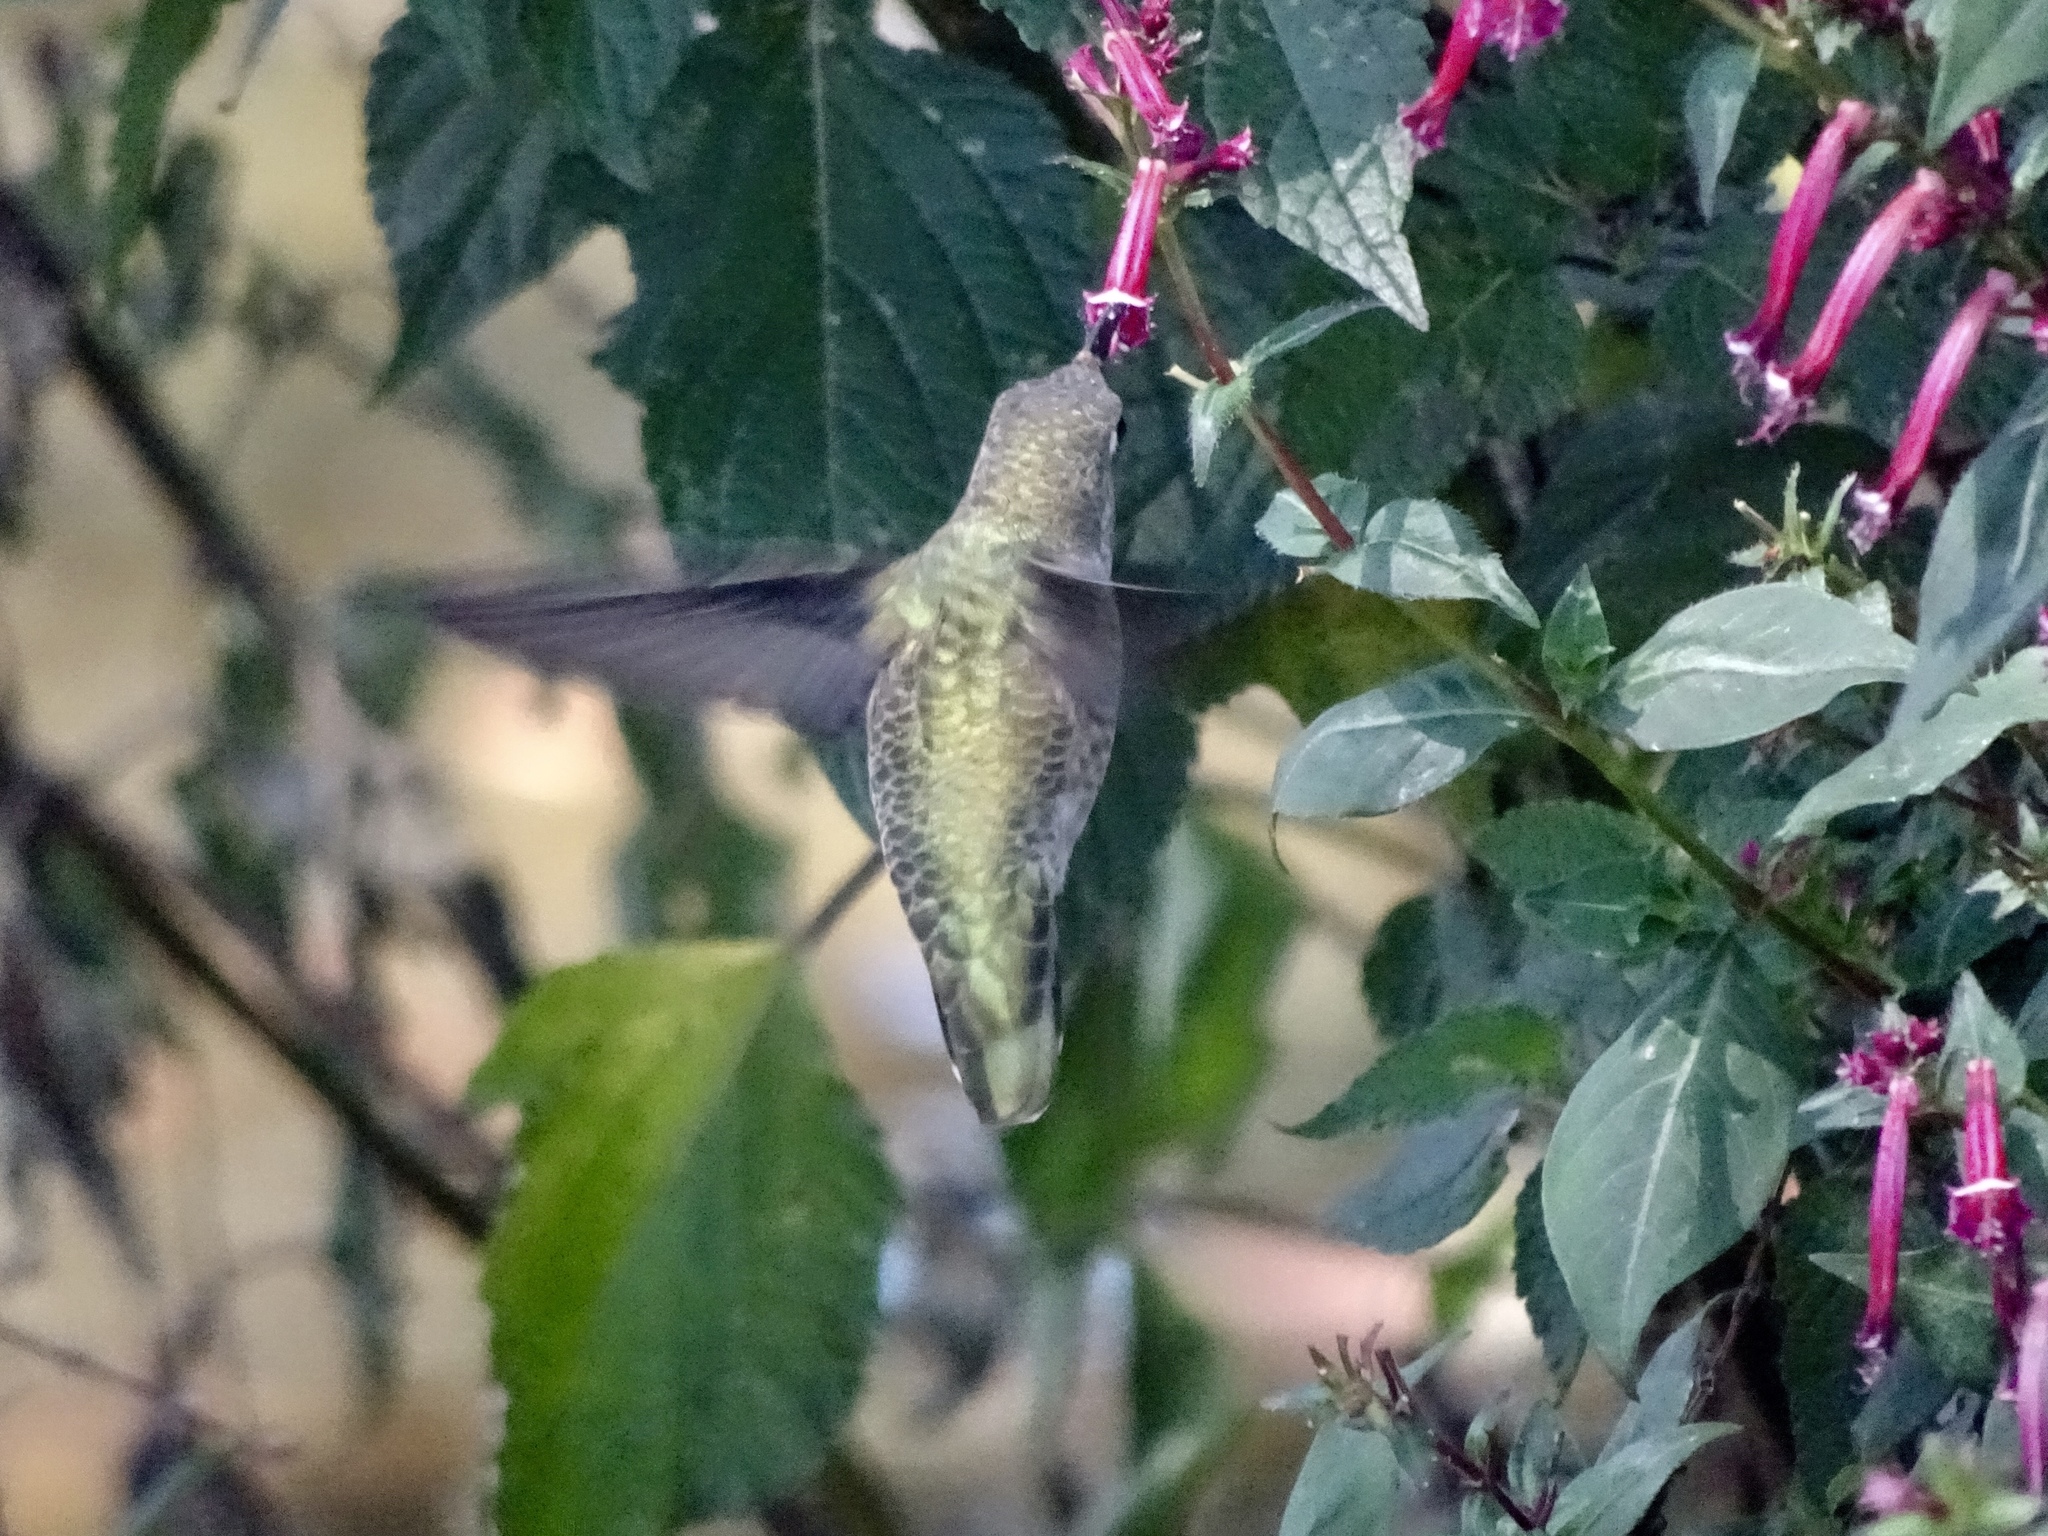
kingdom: Animalia
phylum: Chordata
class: Aves
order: Apodiformes
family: Trochilidae
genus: Calypte
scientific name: Calypte anna
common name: Anna's hummingbird
